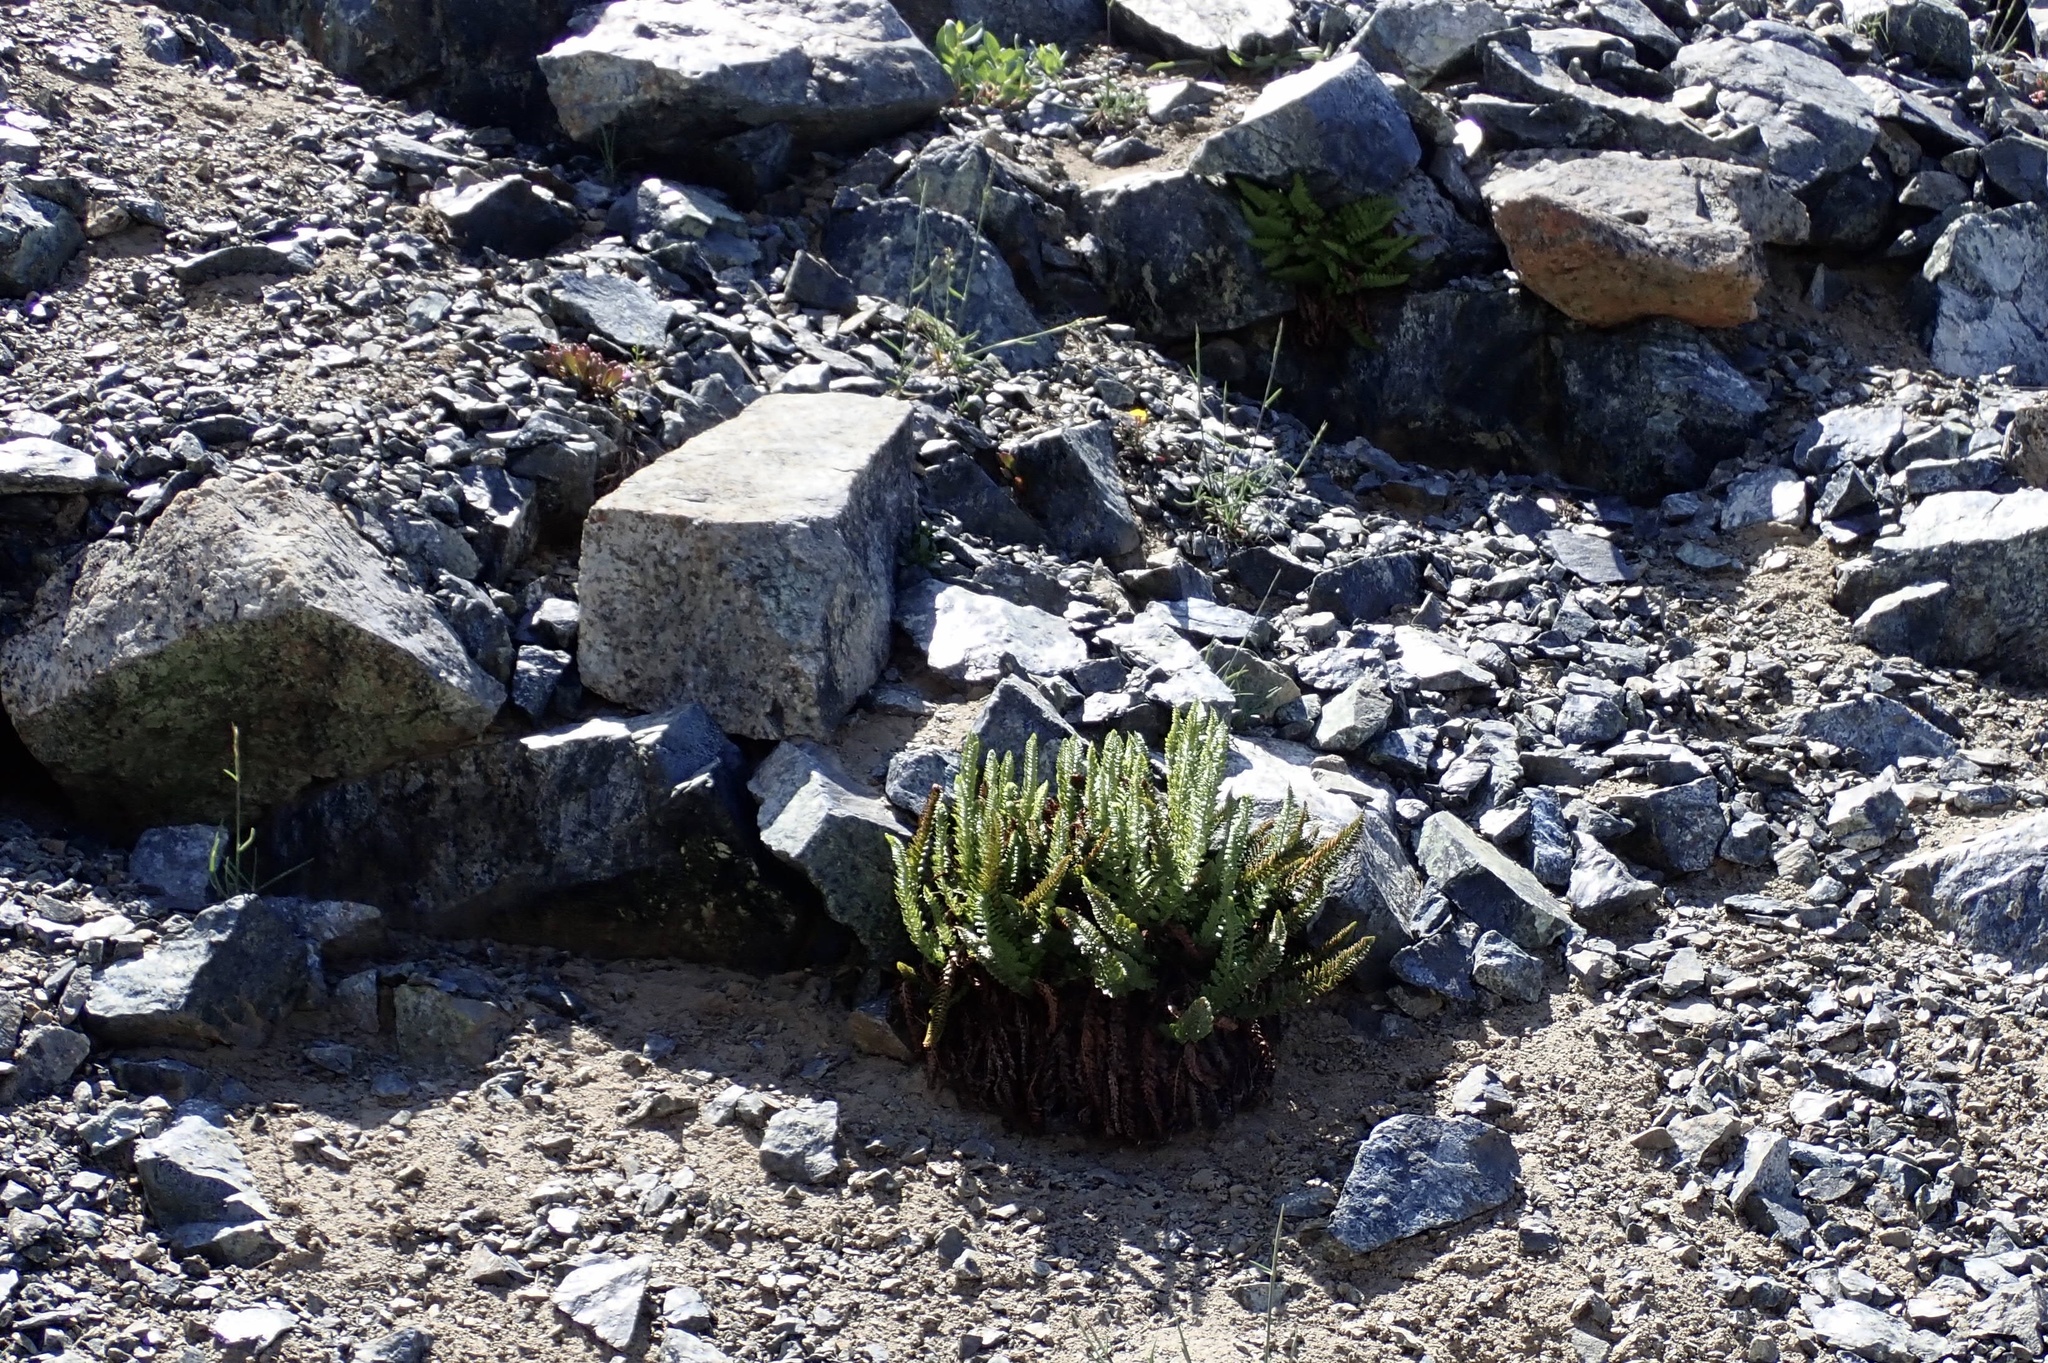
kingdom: Plantae
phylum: Tracheophyta
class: Polypodiopsida
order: Polypodiales
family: Dryopteridaceae
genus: Polystichum
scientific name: Polystichum lemmonii
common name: Lemmon's holly fern
